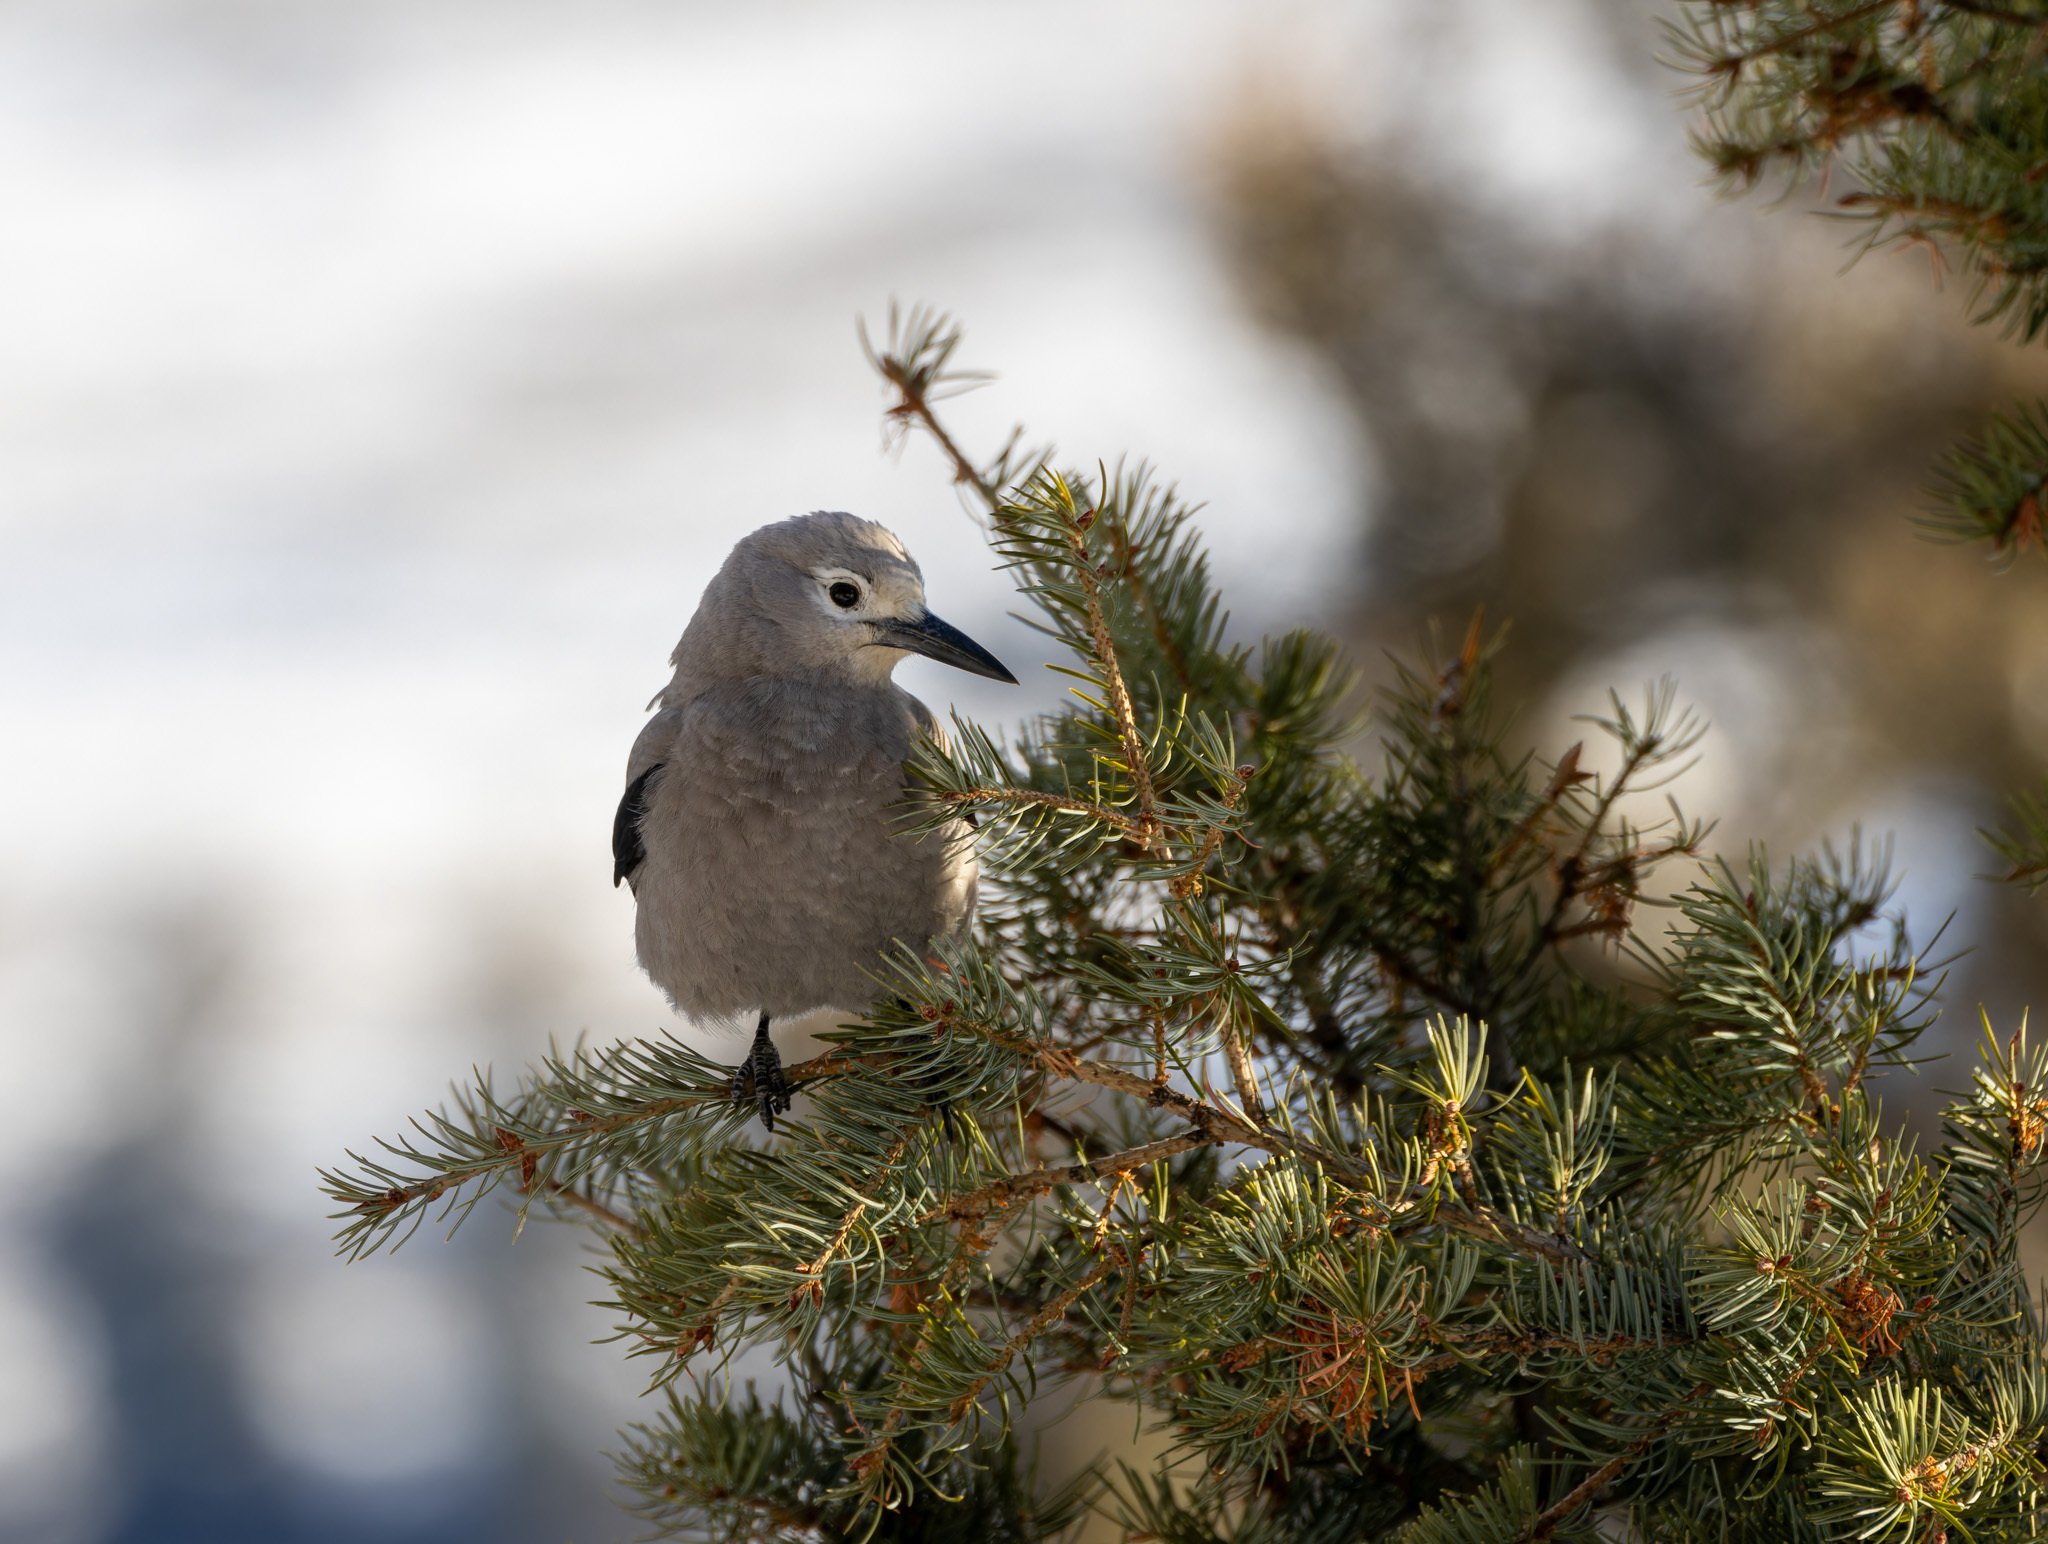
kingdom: Animalia
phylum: Chordata
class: Aves
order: Passeriformes
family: Corvidae
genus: Nucifraga
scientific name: Nucifraga columbiana
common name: Clark's nutcracker
